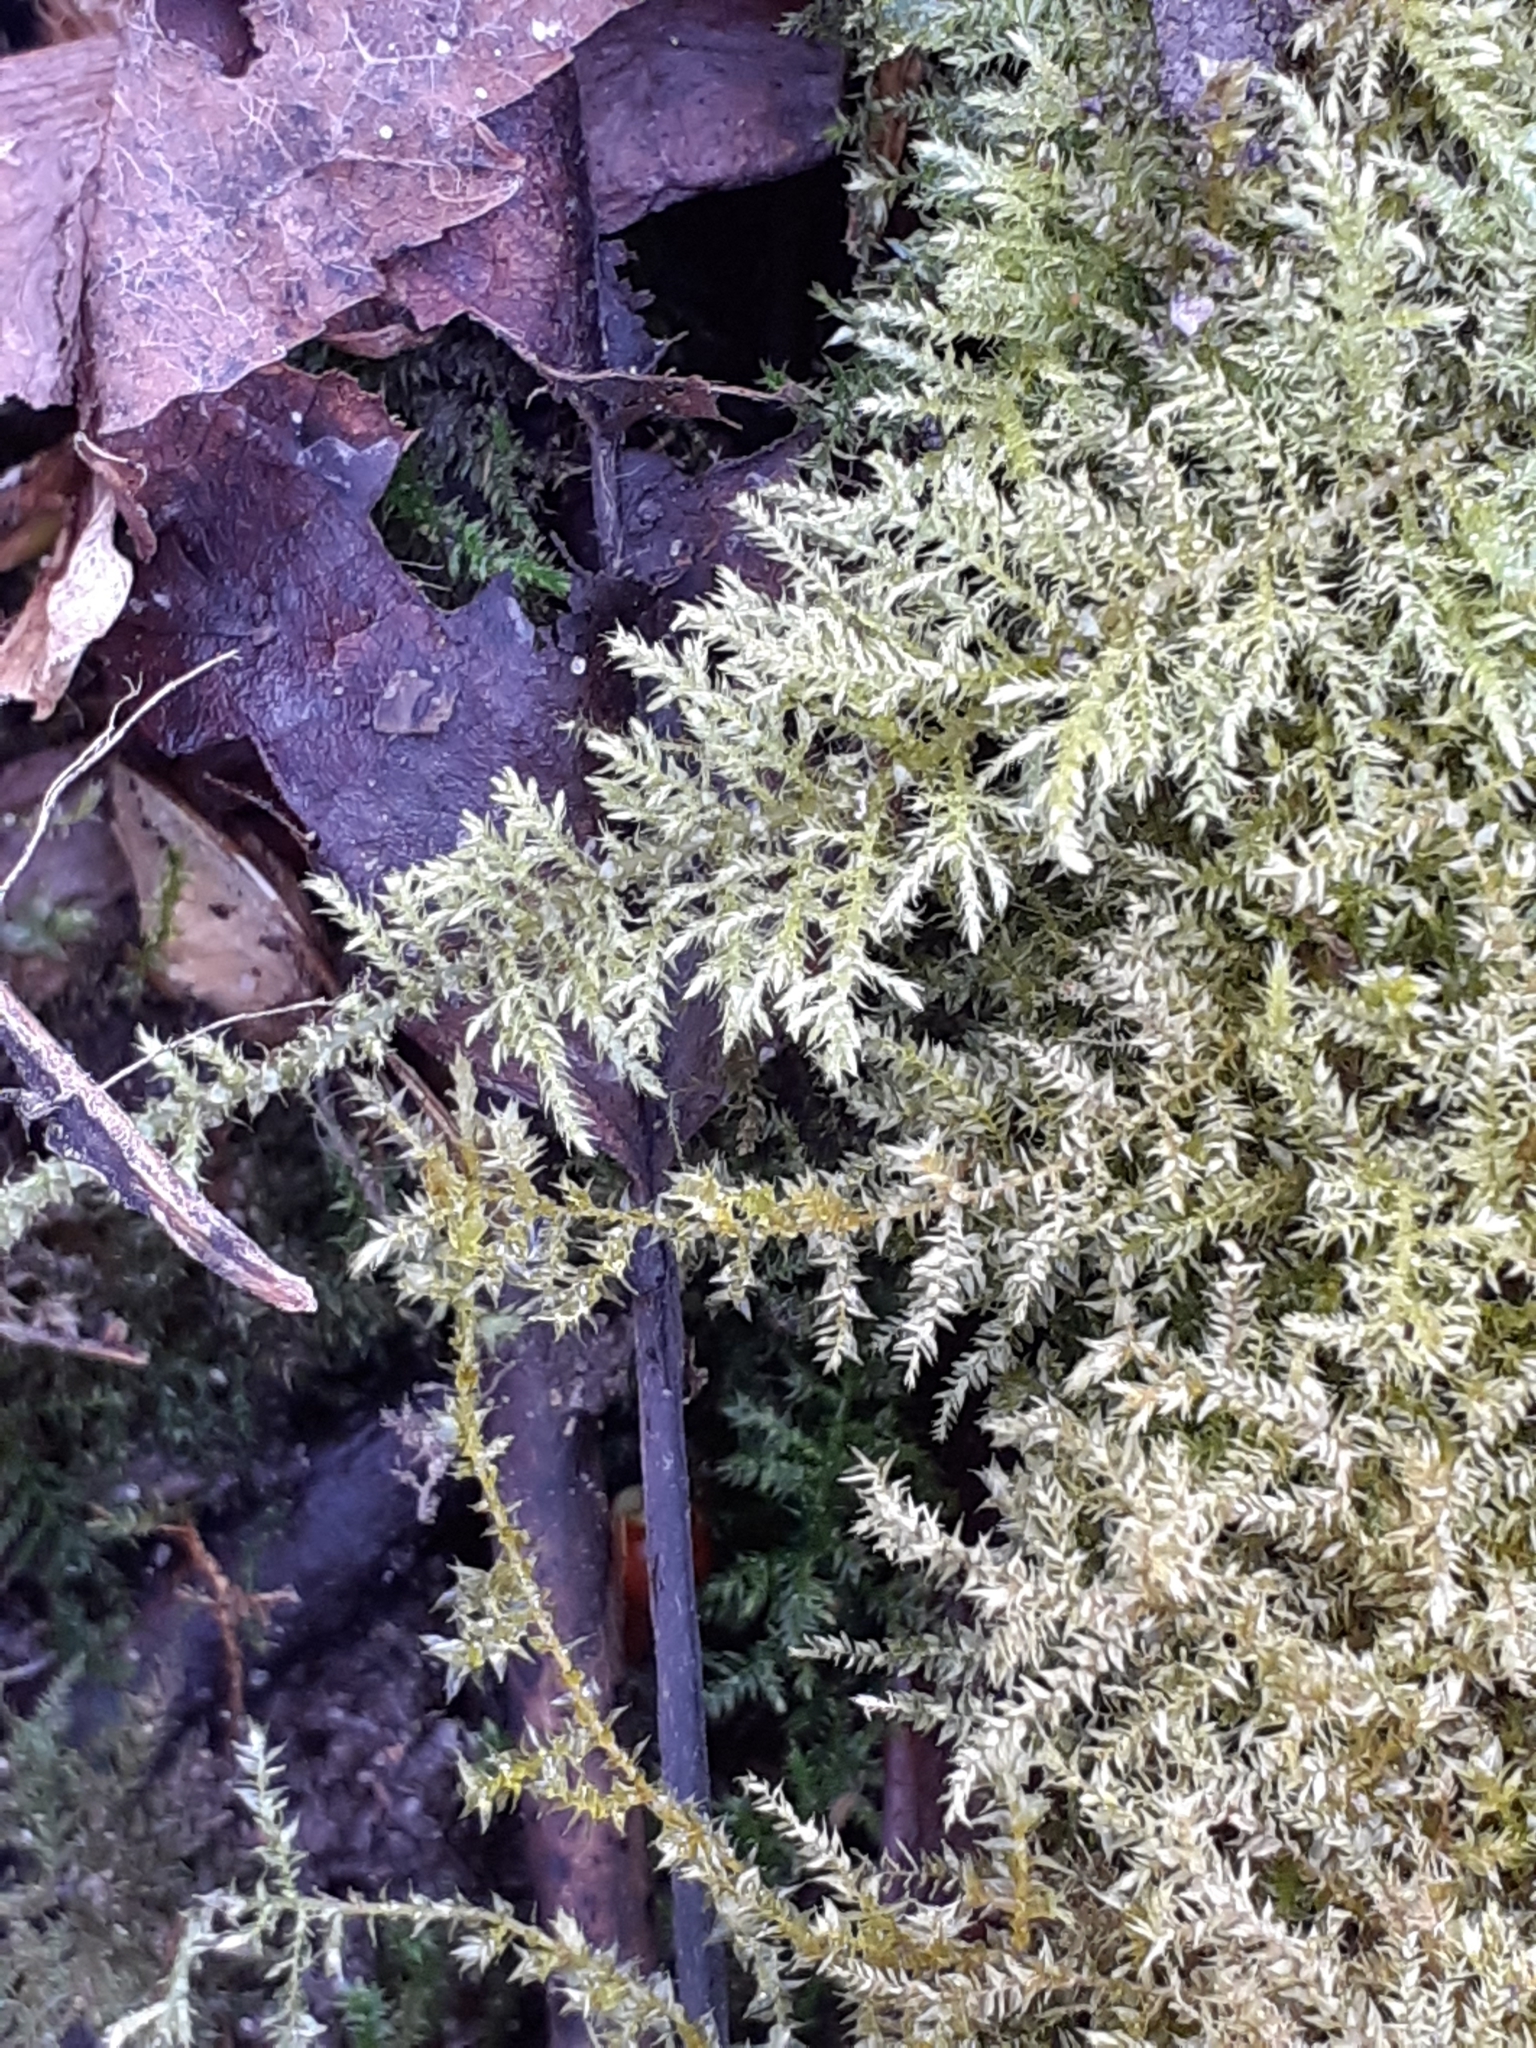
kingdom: Plantae
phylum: Bryophyta
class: Bryopsida
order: Hypnales
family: Brachytheciaceae
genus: Kindbergia
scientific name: Kindbergia praelonga
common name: Slender beaked moss
